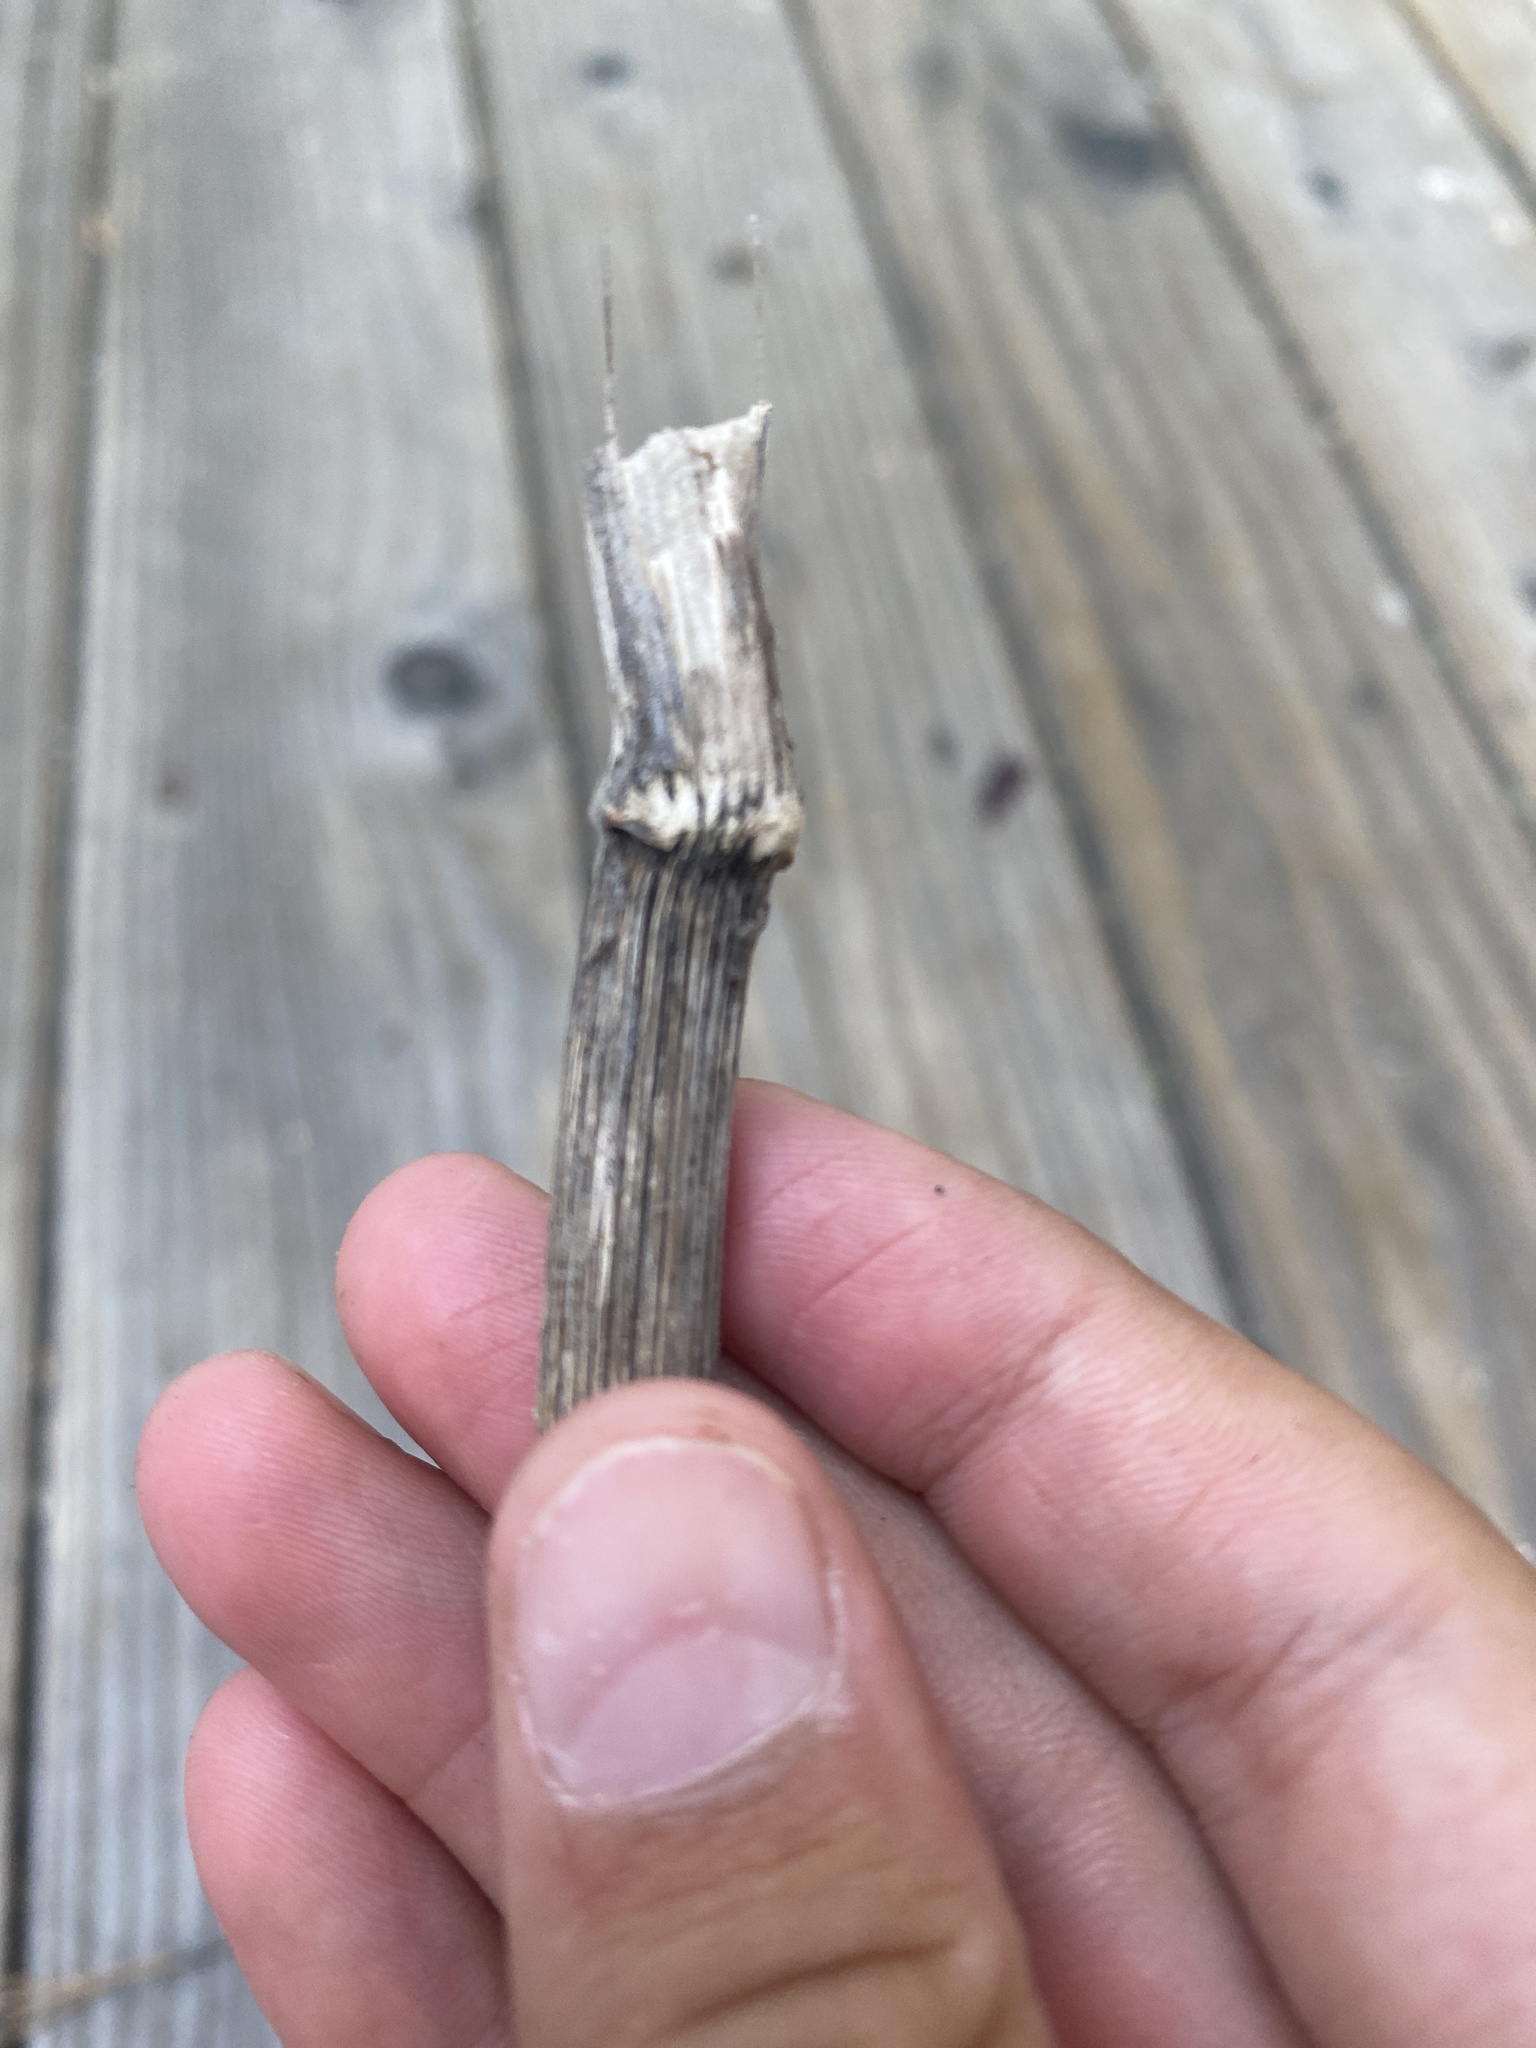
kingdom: Plantae
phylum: Tracheophyta
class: Magnoliopsida
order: Apiales
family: Apiaceae
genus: Foeniculum
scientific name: Foeniculum vulgare
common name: Fennel
